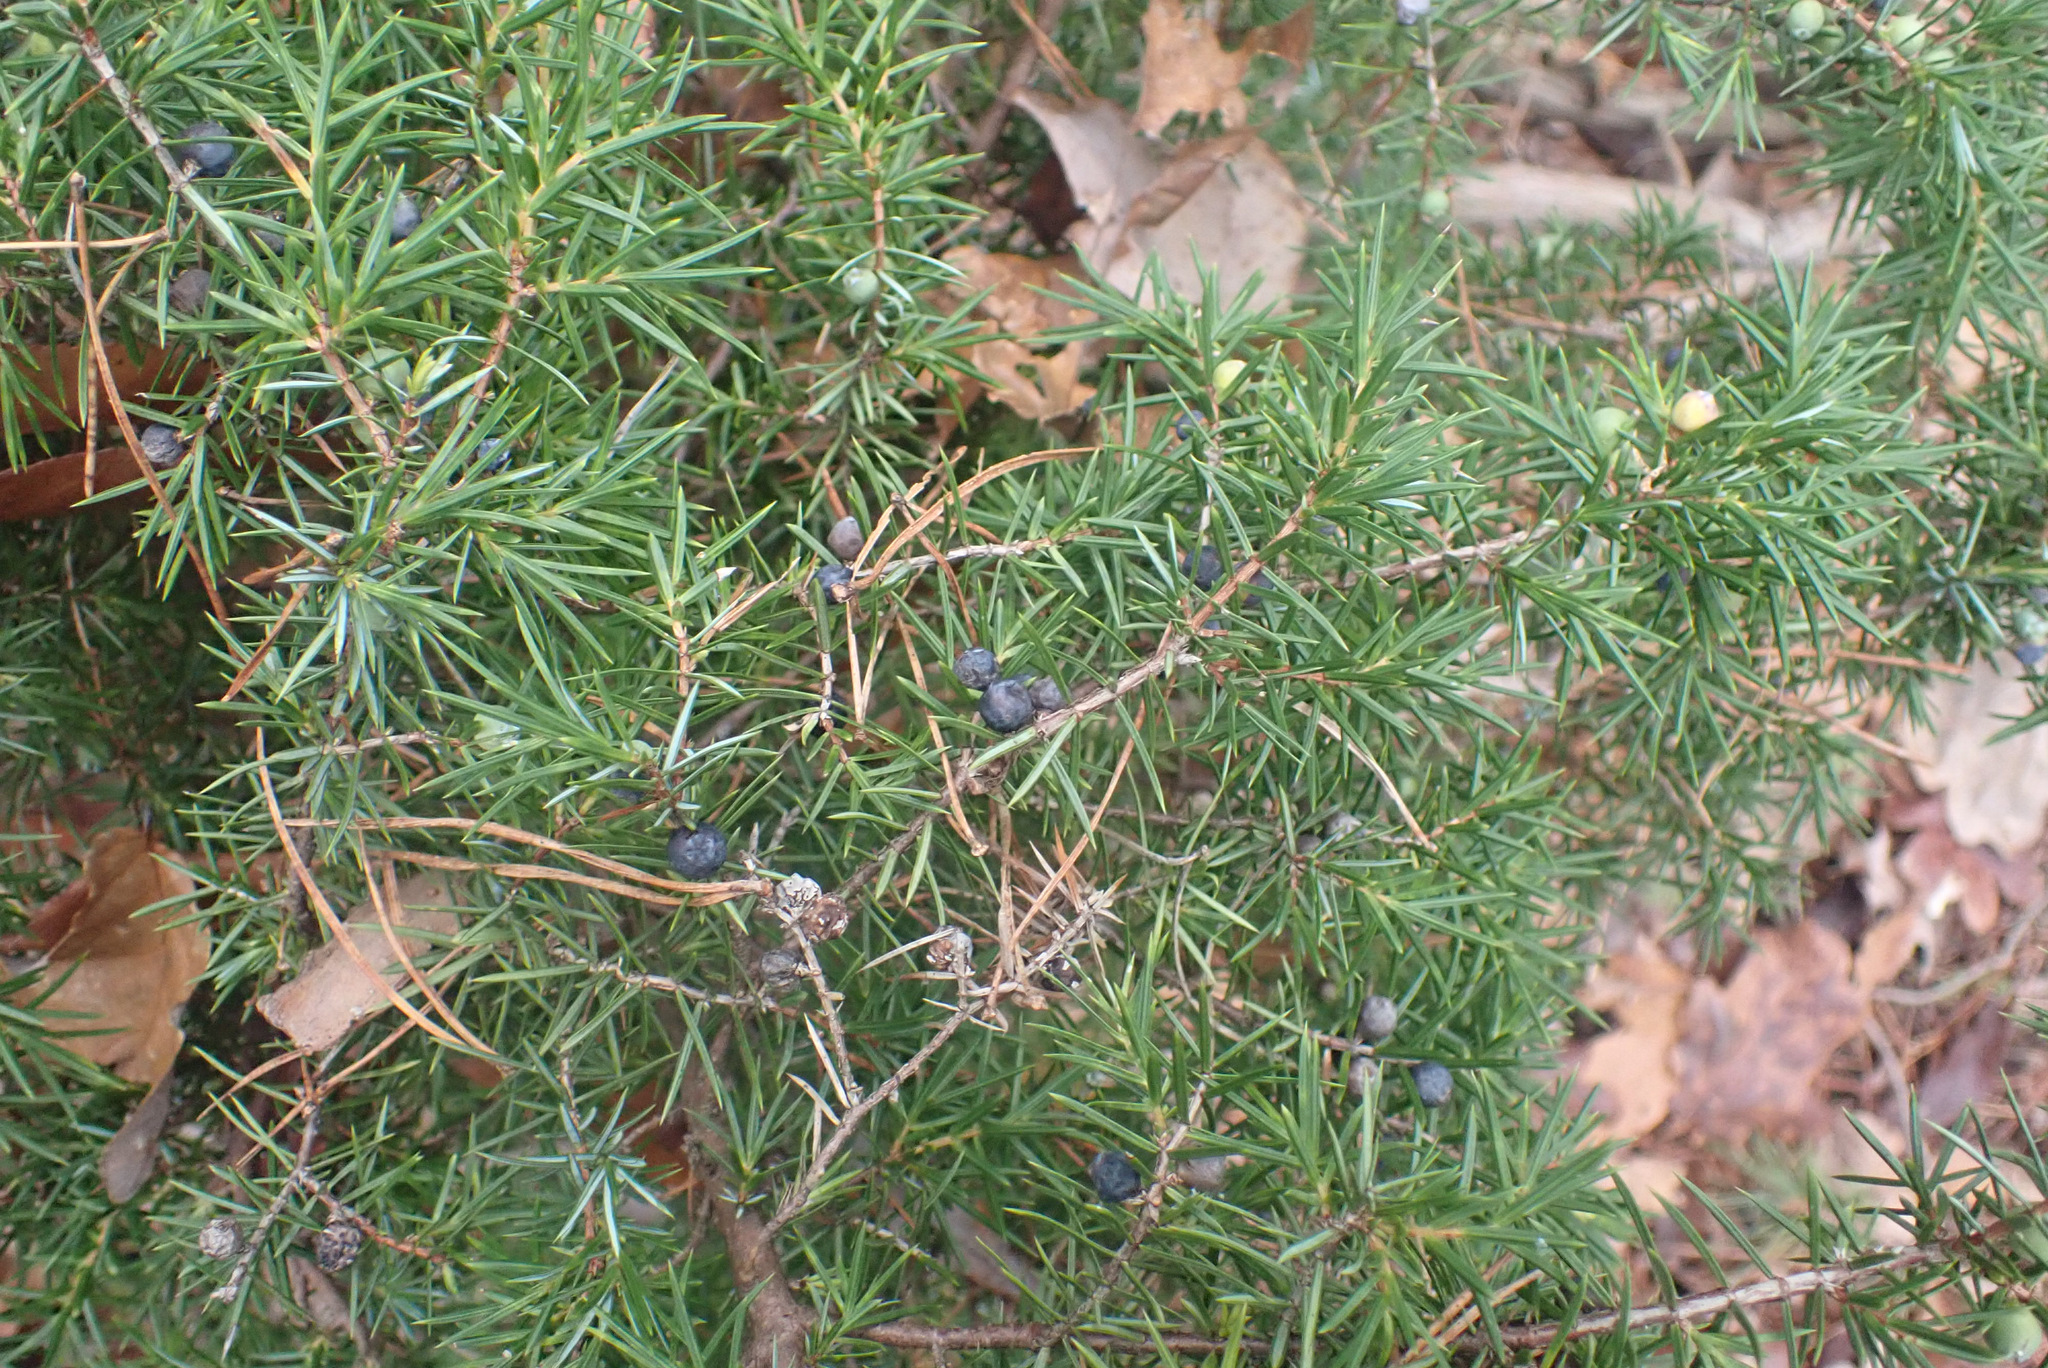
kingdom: Plantae
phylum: Tracheophyta
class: Pinopsida
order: Pinales
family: Cupressaceae
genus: Juniperus
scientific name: Juniperus communis
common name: Common juniper
